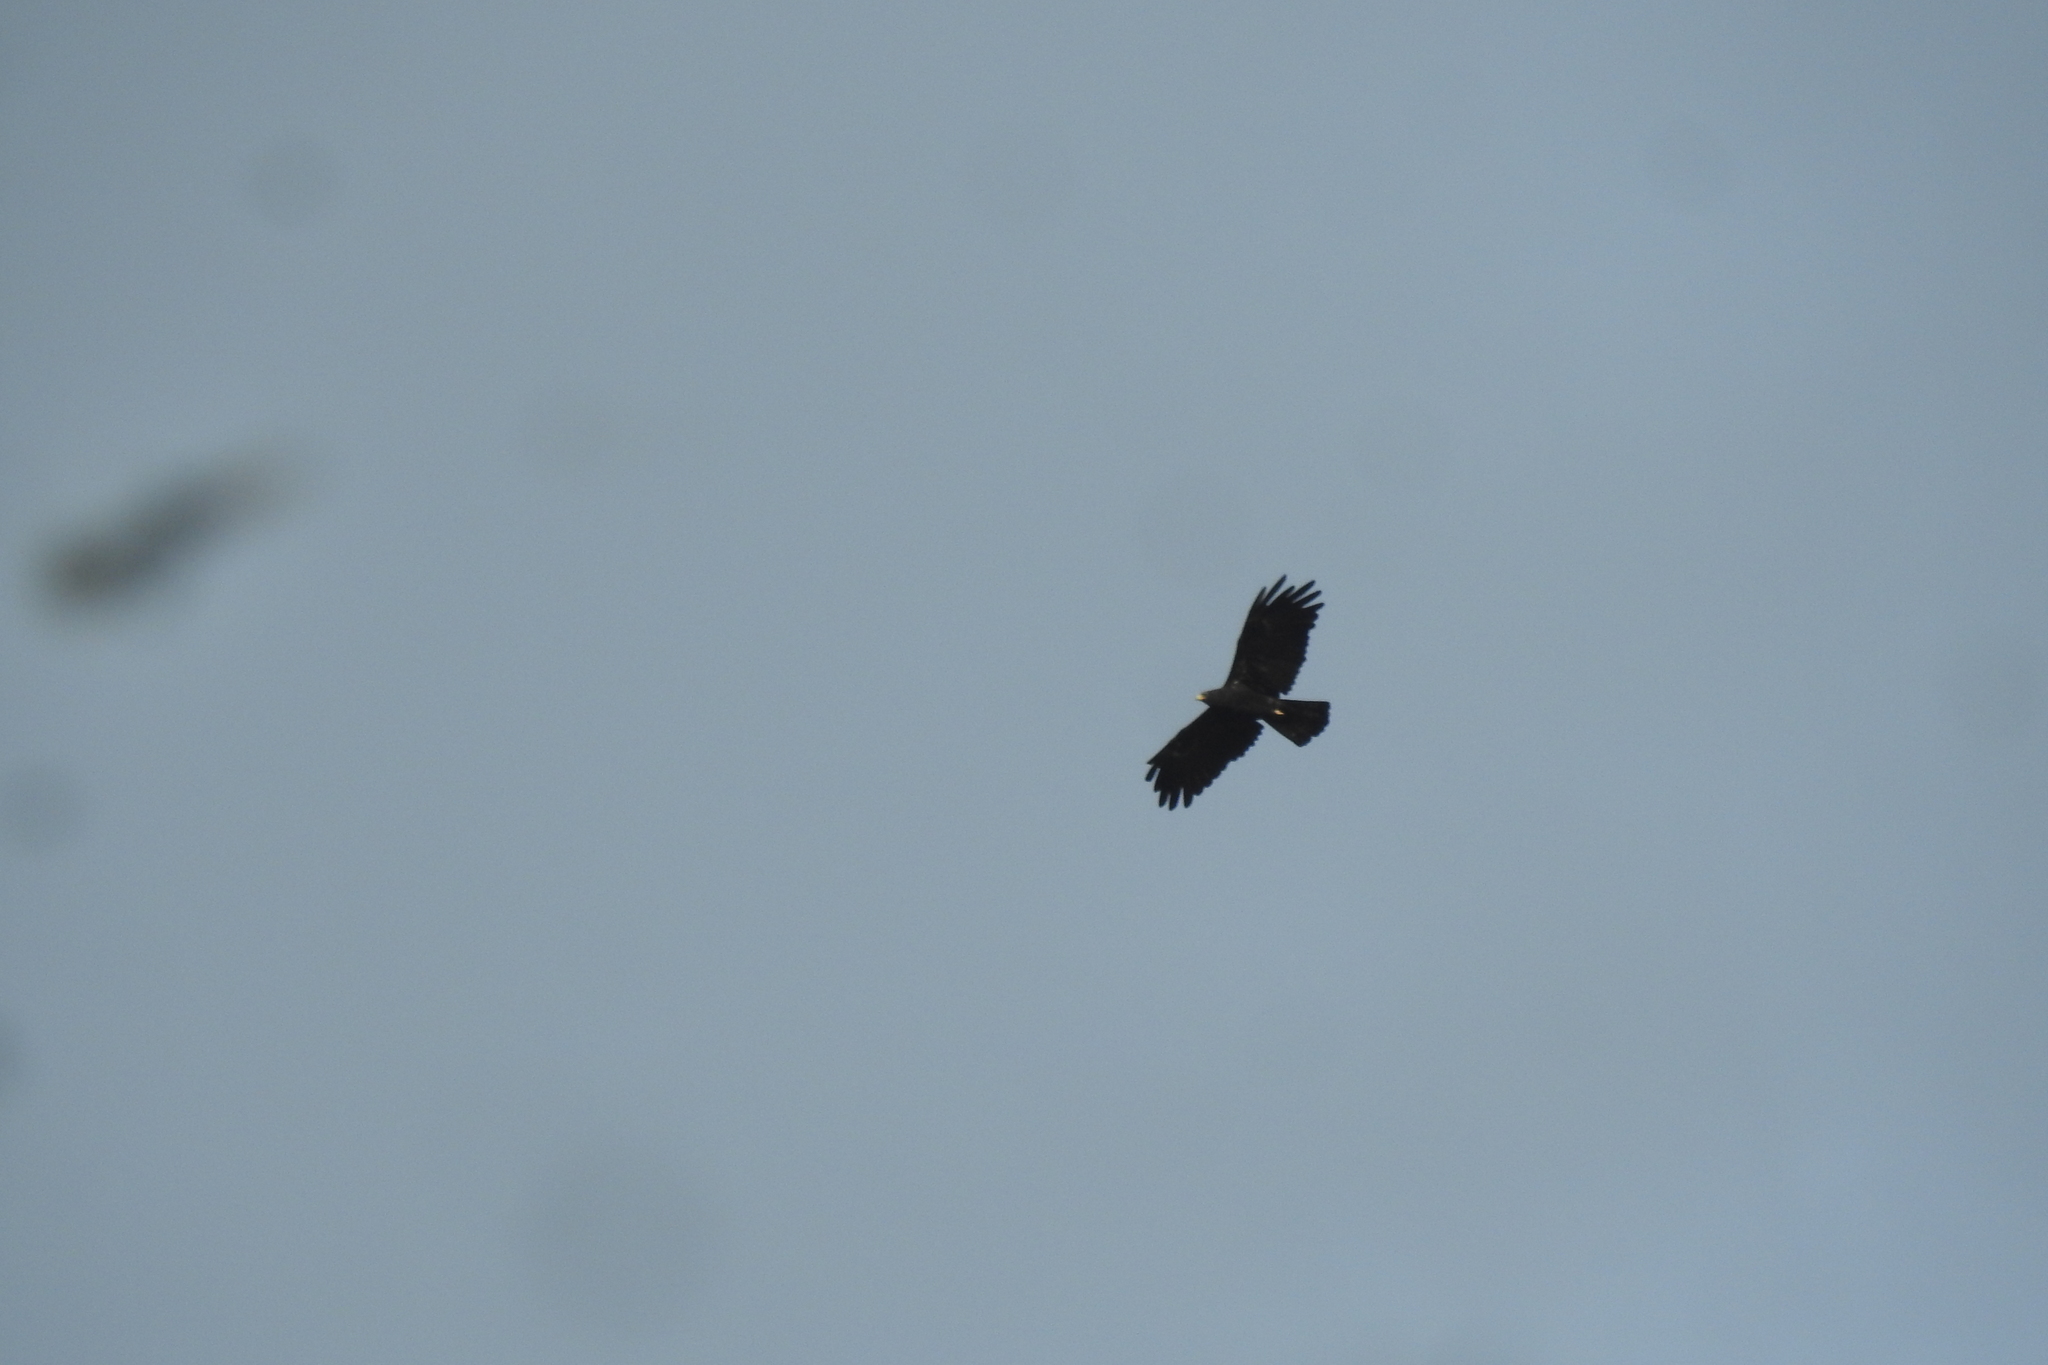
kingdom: Animalia
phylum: Chordata
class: Aves
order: Accipitriformes
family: Accipitridae
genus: Ictinaetus
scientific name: Ictinaetus malayensis
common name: Black eagle
